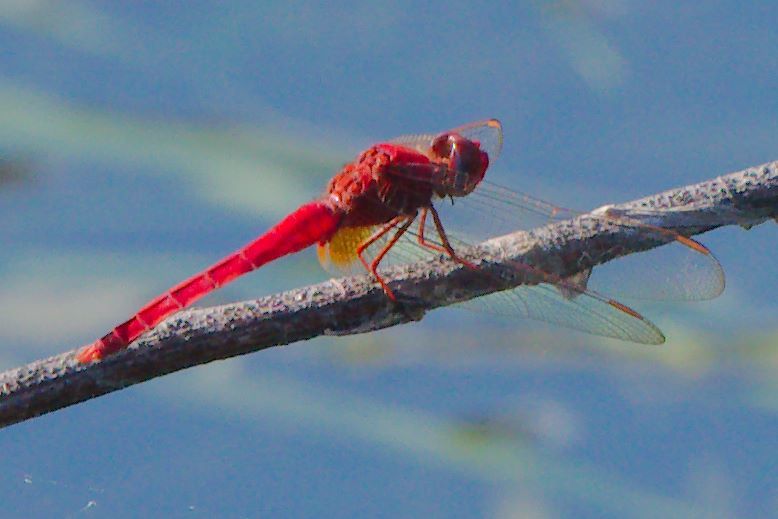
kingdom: Animalia
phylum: Arthropoda
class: Insecta
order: Odonata
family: Libellulidae
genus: Crocothemis
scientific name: Crocothemis servilia
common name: Scarlet skimmer
